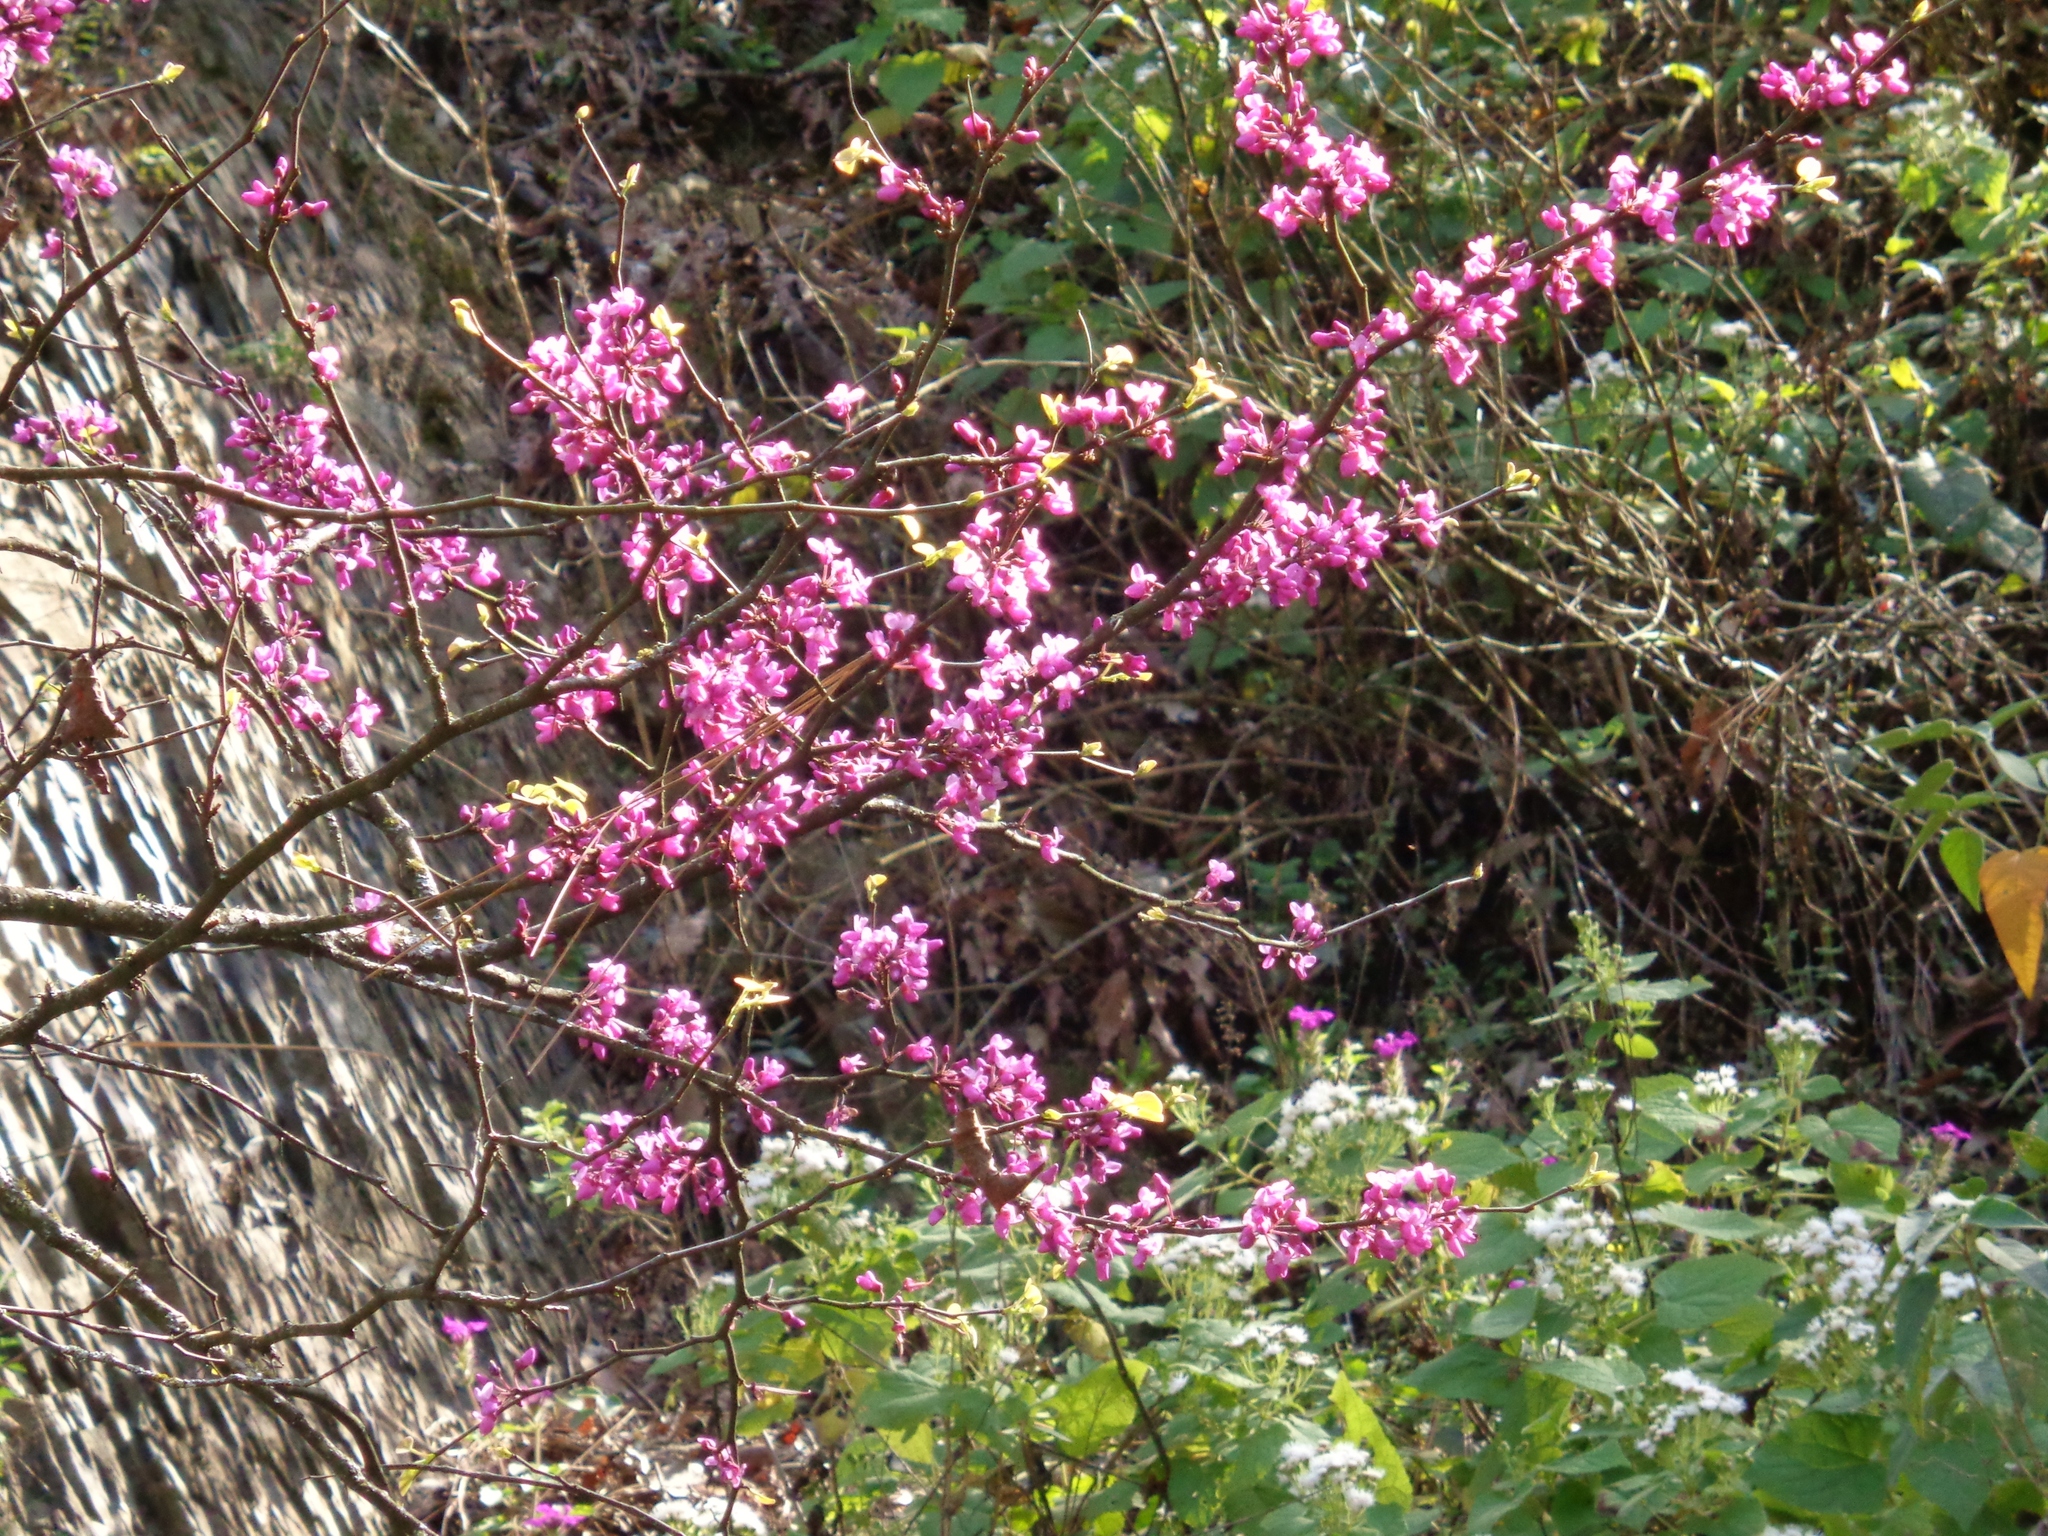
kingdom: Plantae
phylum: Tracheophyta
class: Magnoliopsida
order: Fabales
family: Fabaceae
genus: Cercis
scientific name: Cercis canadensis
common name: Eastern redbud
